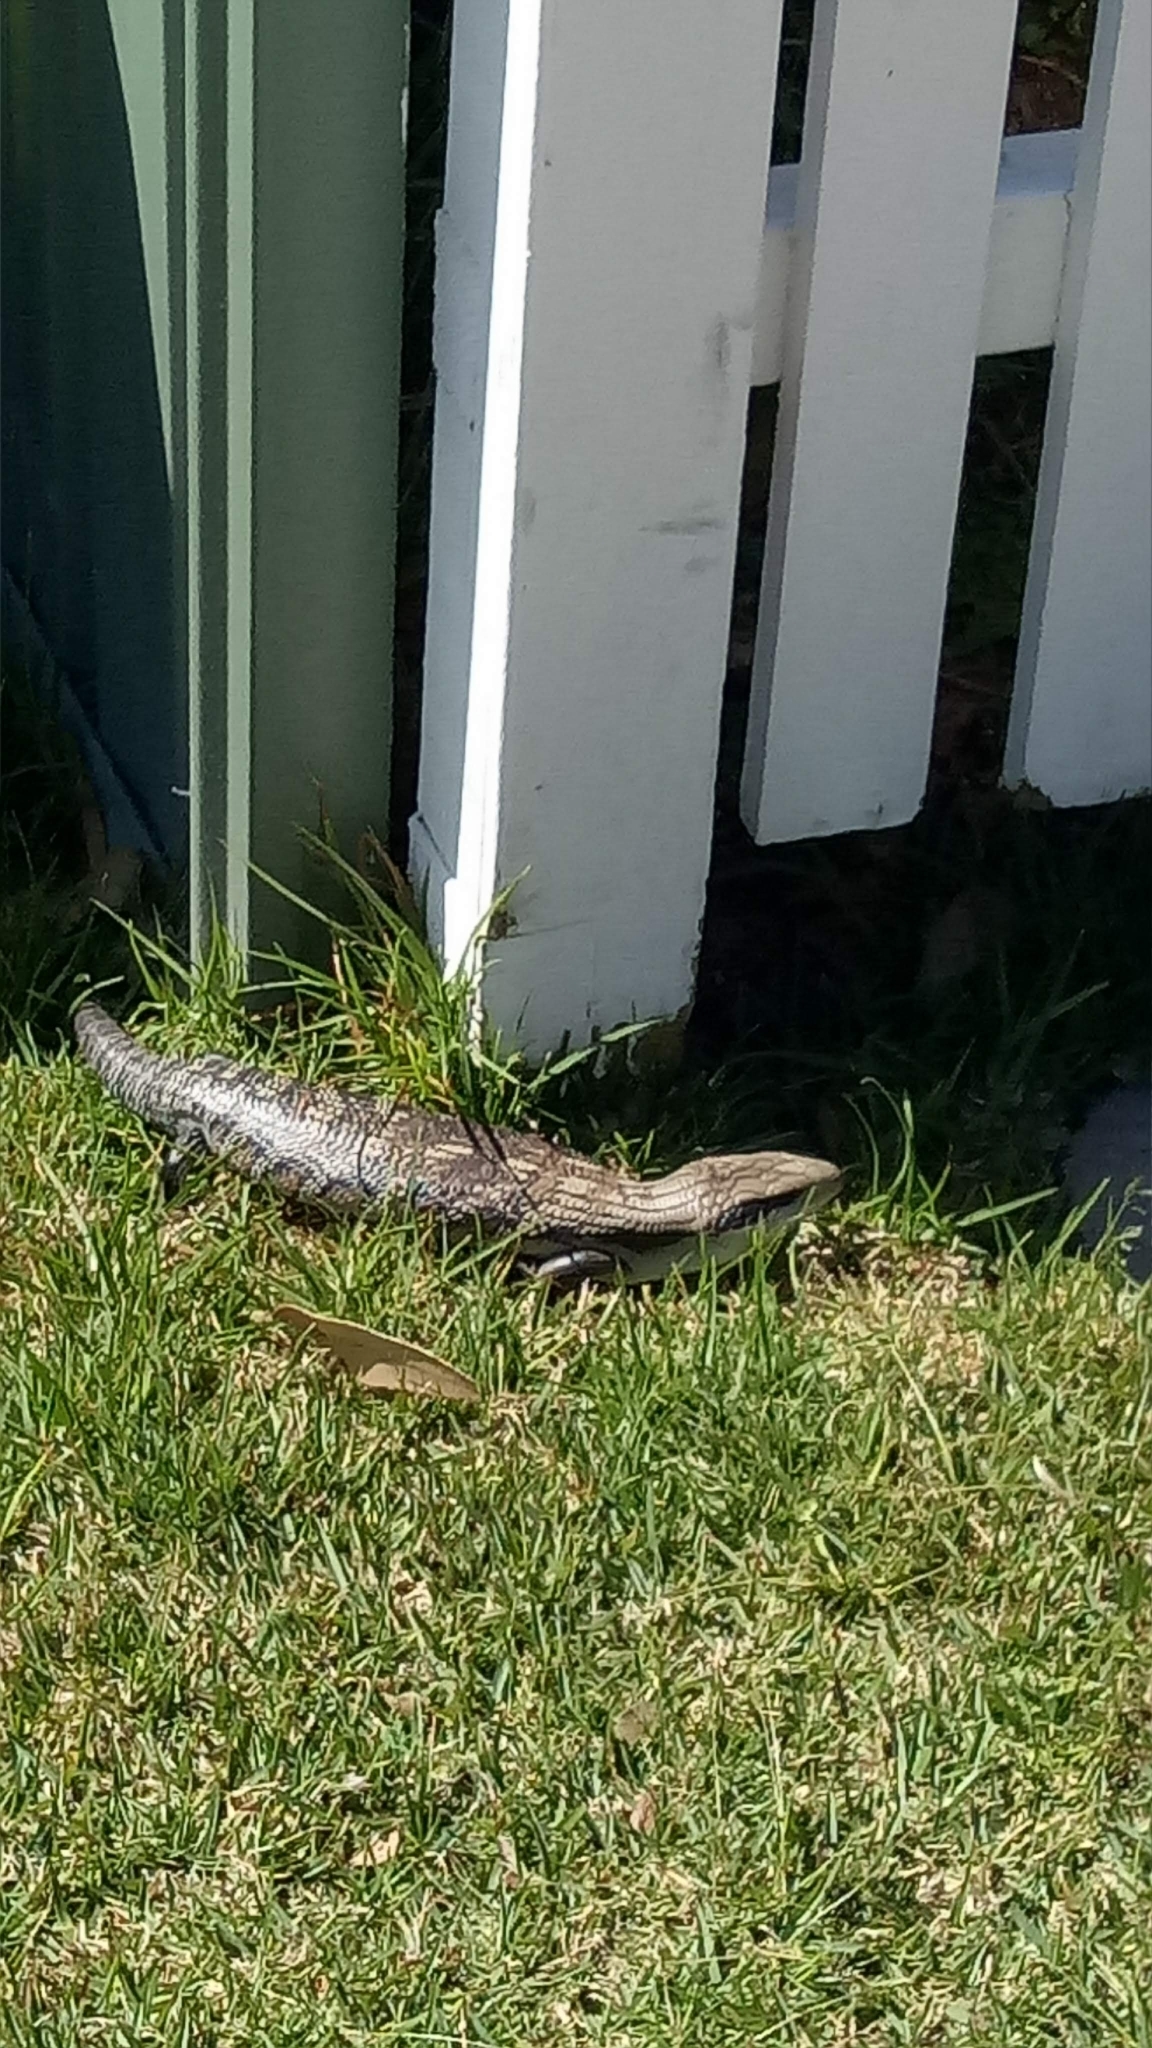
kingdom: Animalia
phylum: Chordata
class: Squamata
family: Scincidae
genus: Tiliqua
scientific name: Tiliqua scincoides
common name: Common bluetongue
